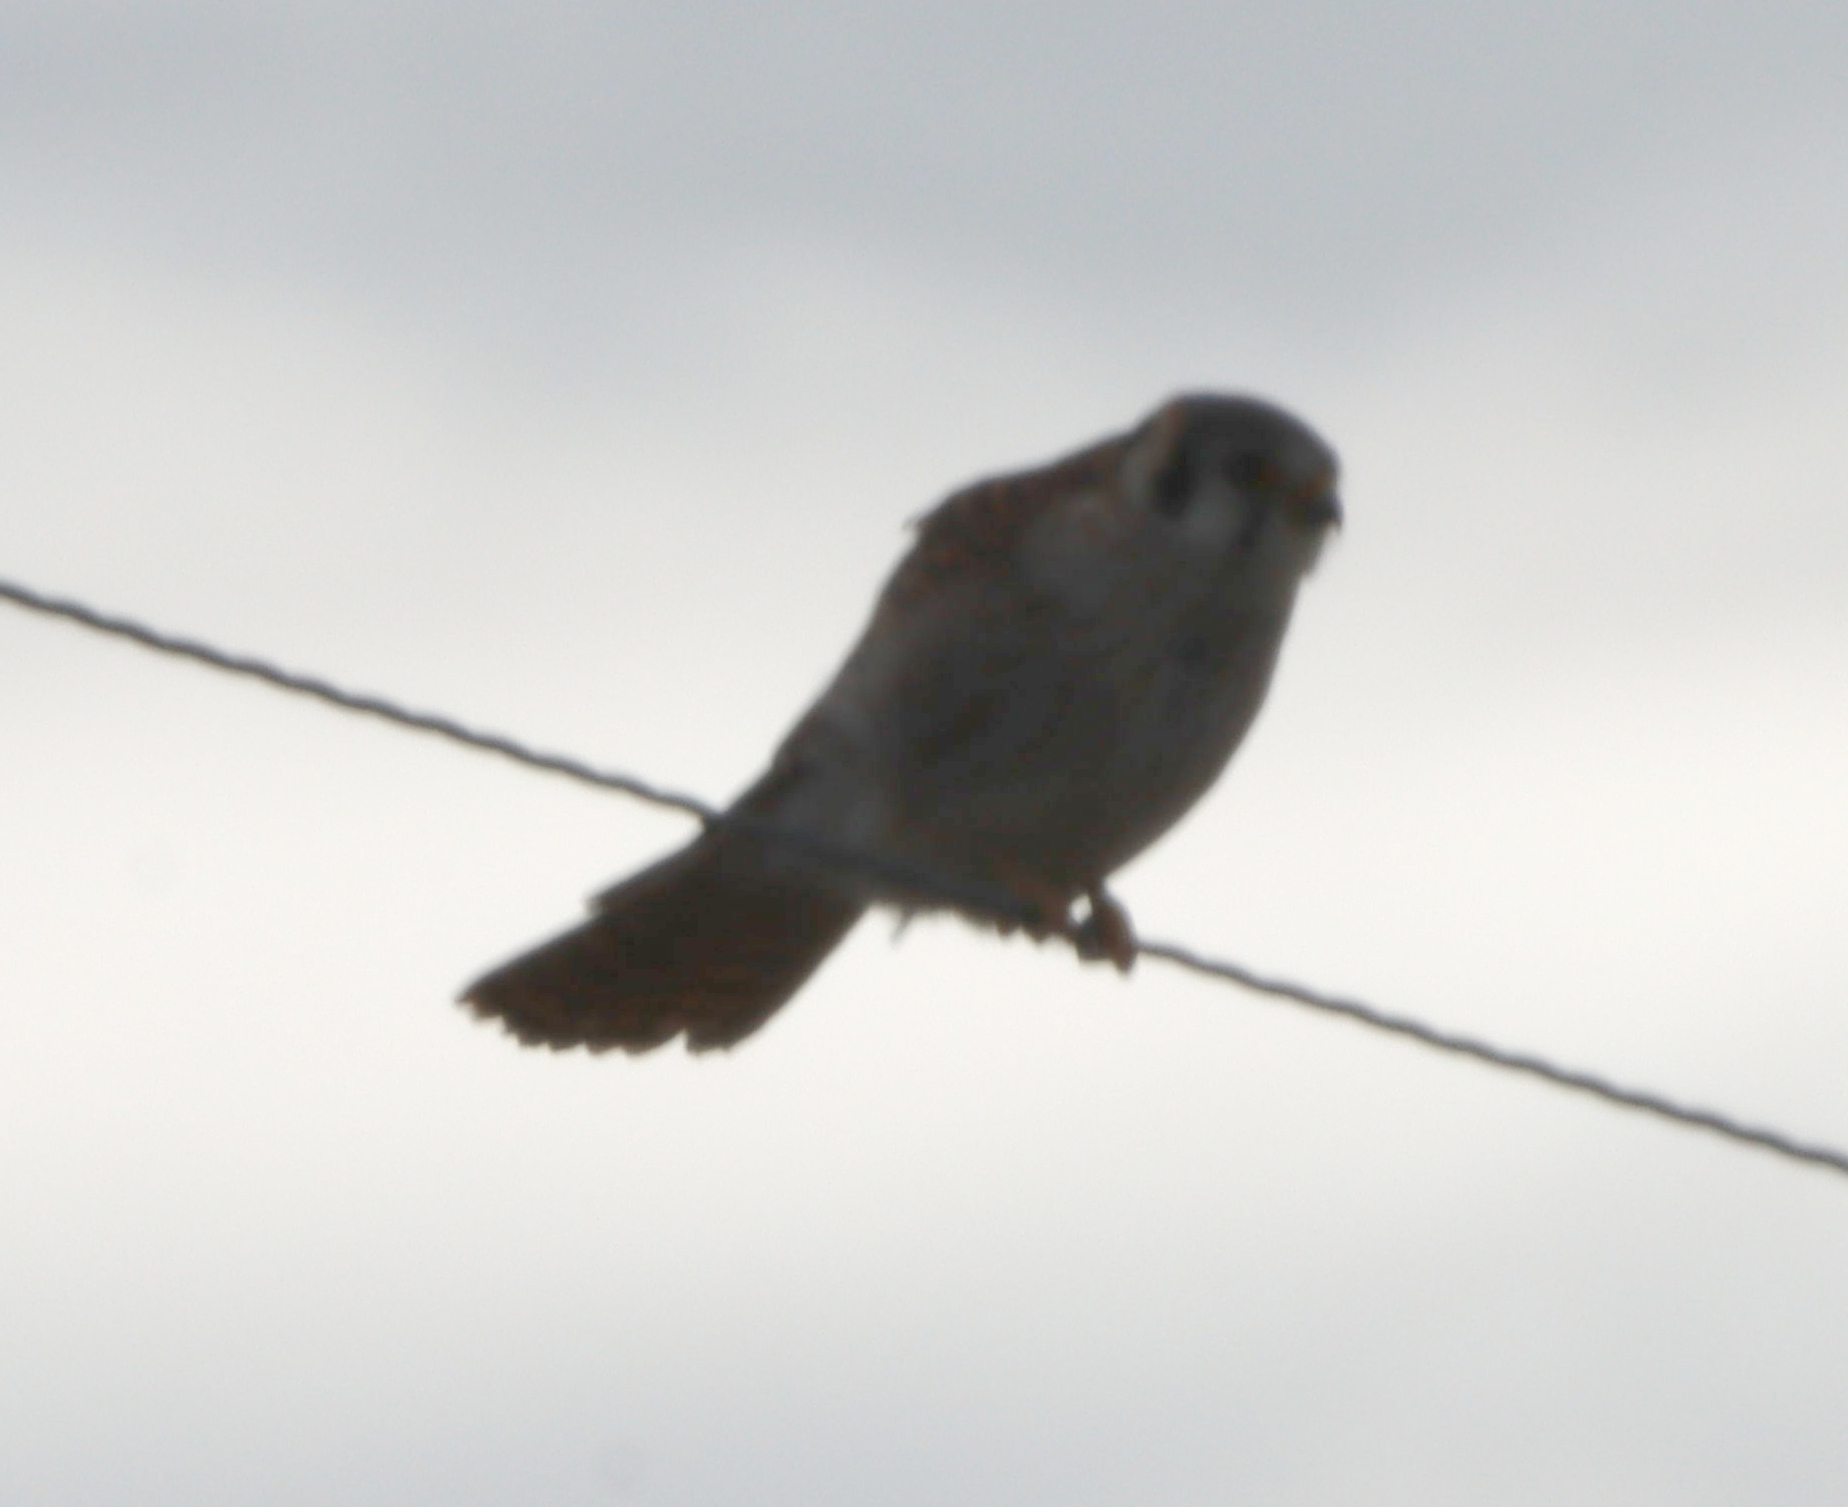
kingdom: Animalia
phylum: Chordata
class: Aves
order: Falconiformes
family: Falconidae
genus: Falco
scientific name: Falco sparverius
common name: American kestrel
